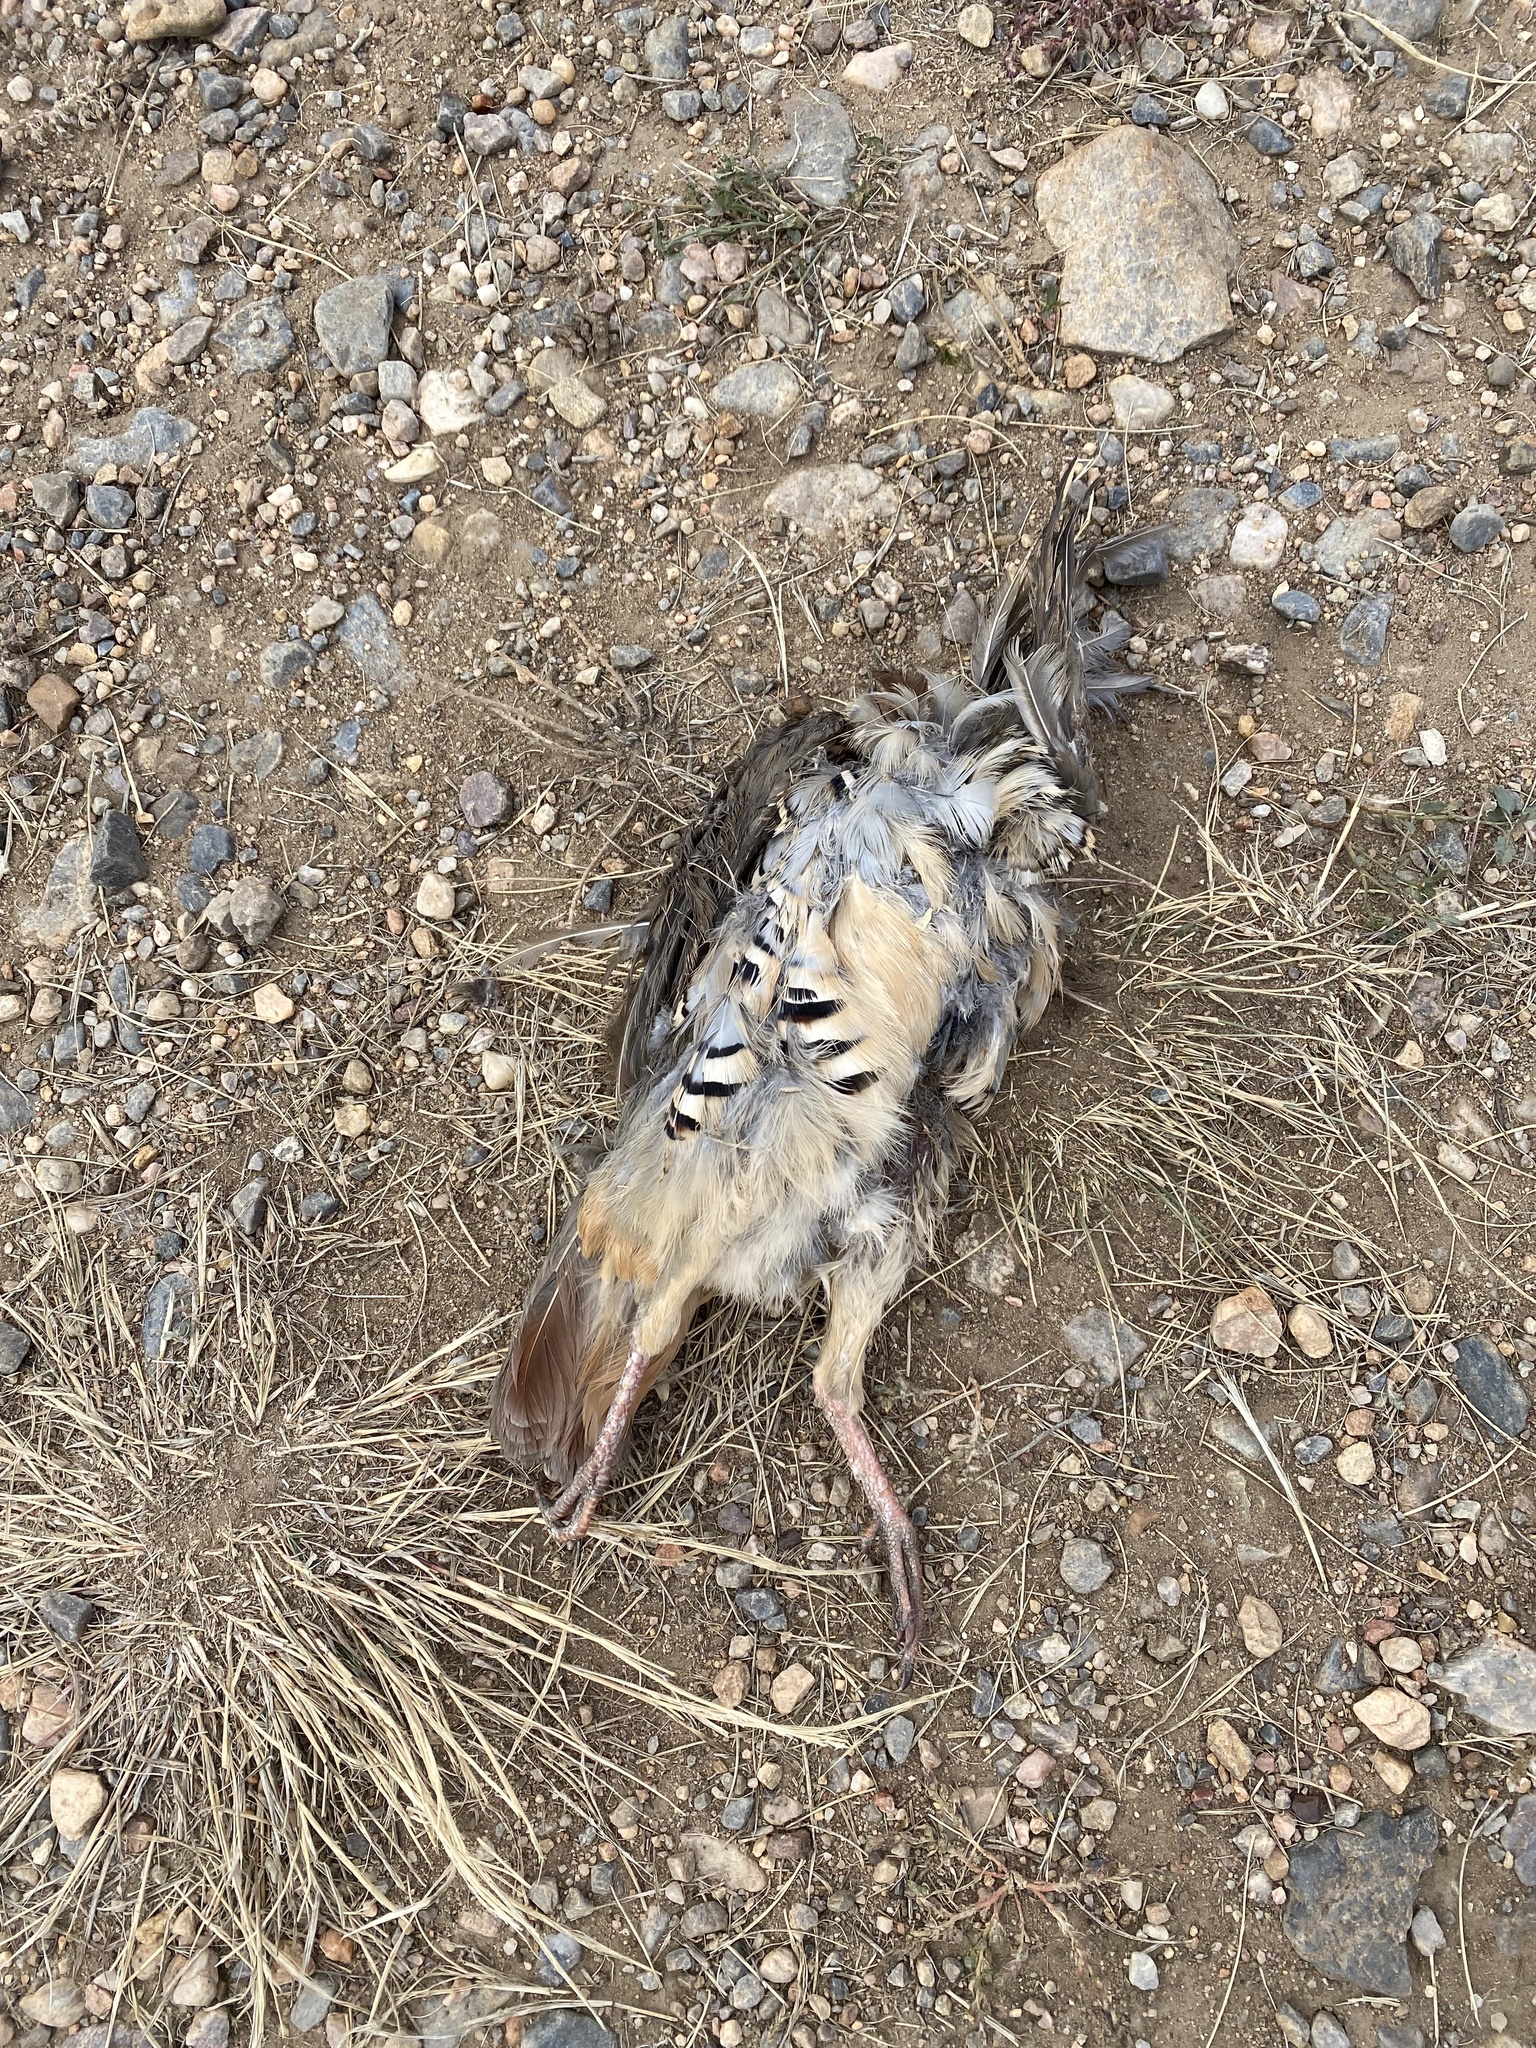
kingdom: Animalia
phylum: Chordata
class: Aves
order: Galliformes
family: Phasianidae
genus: Alectoris
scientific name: Alectoris chukar
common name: Chukar
